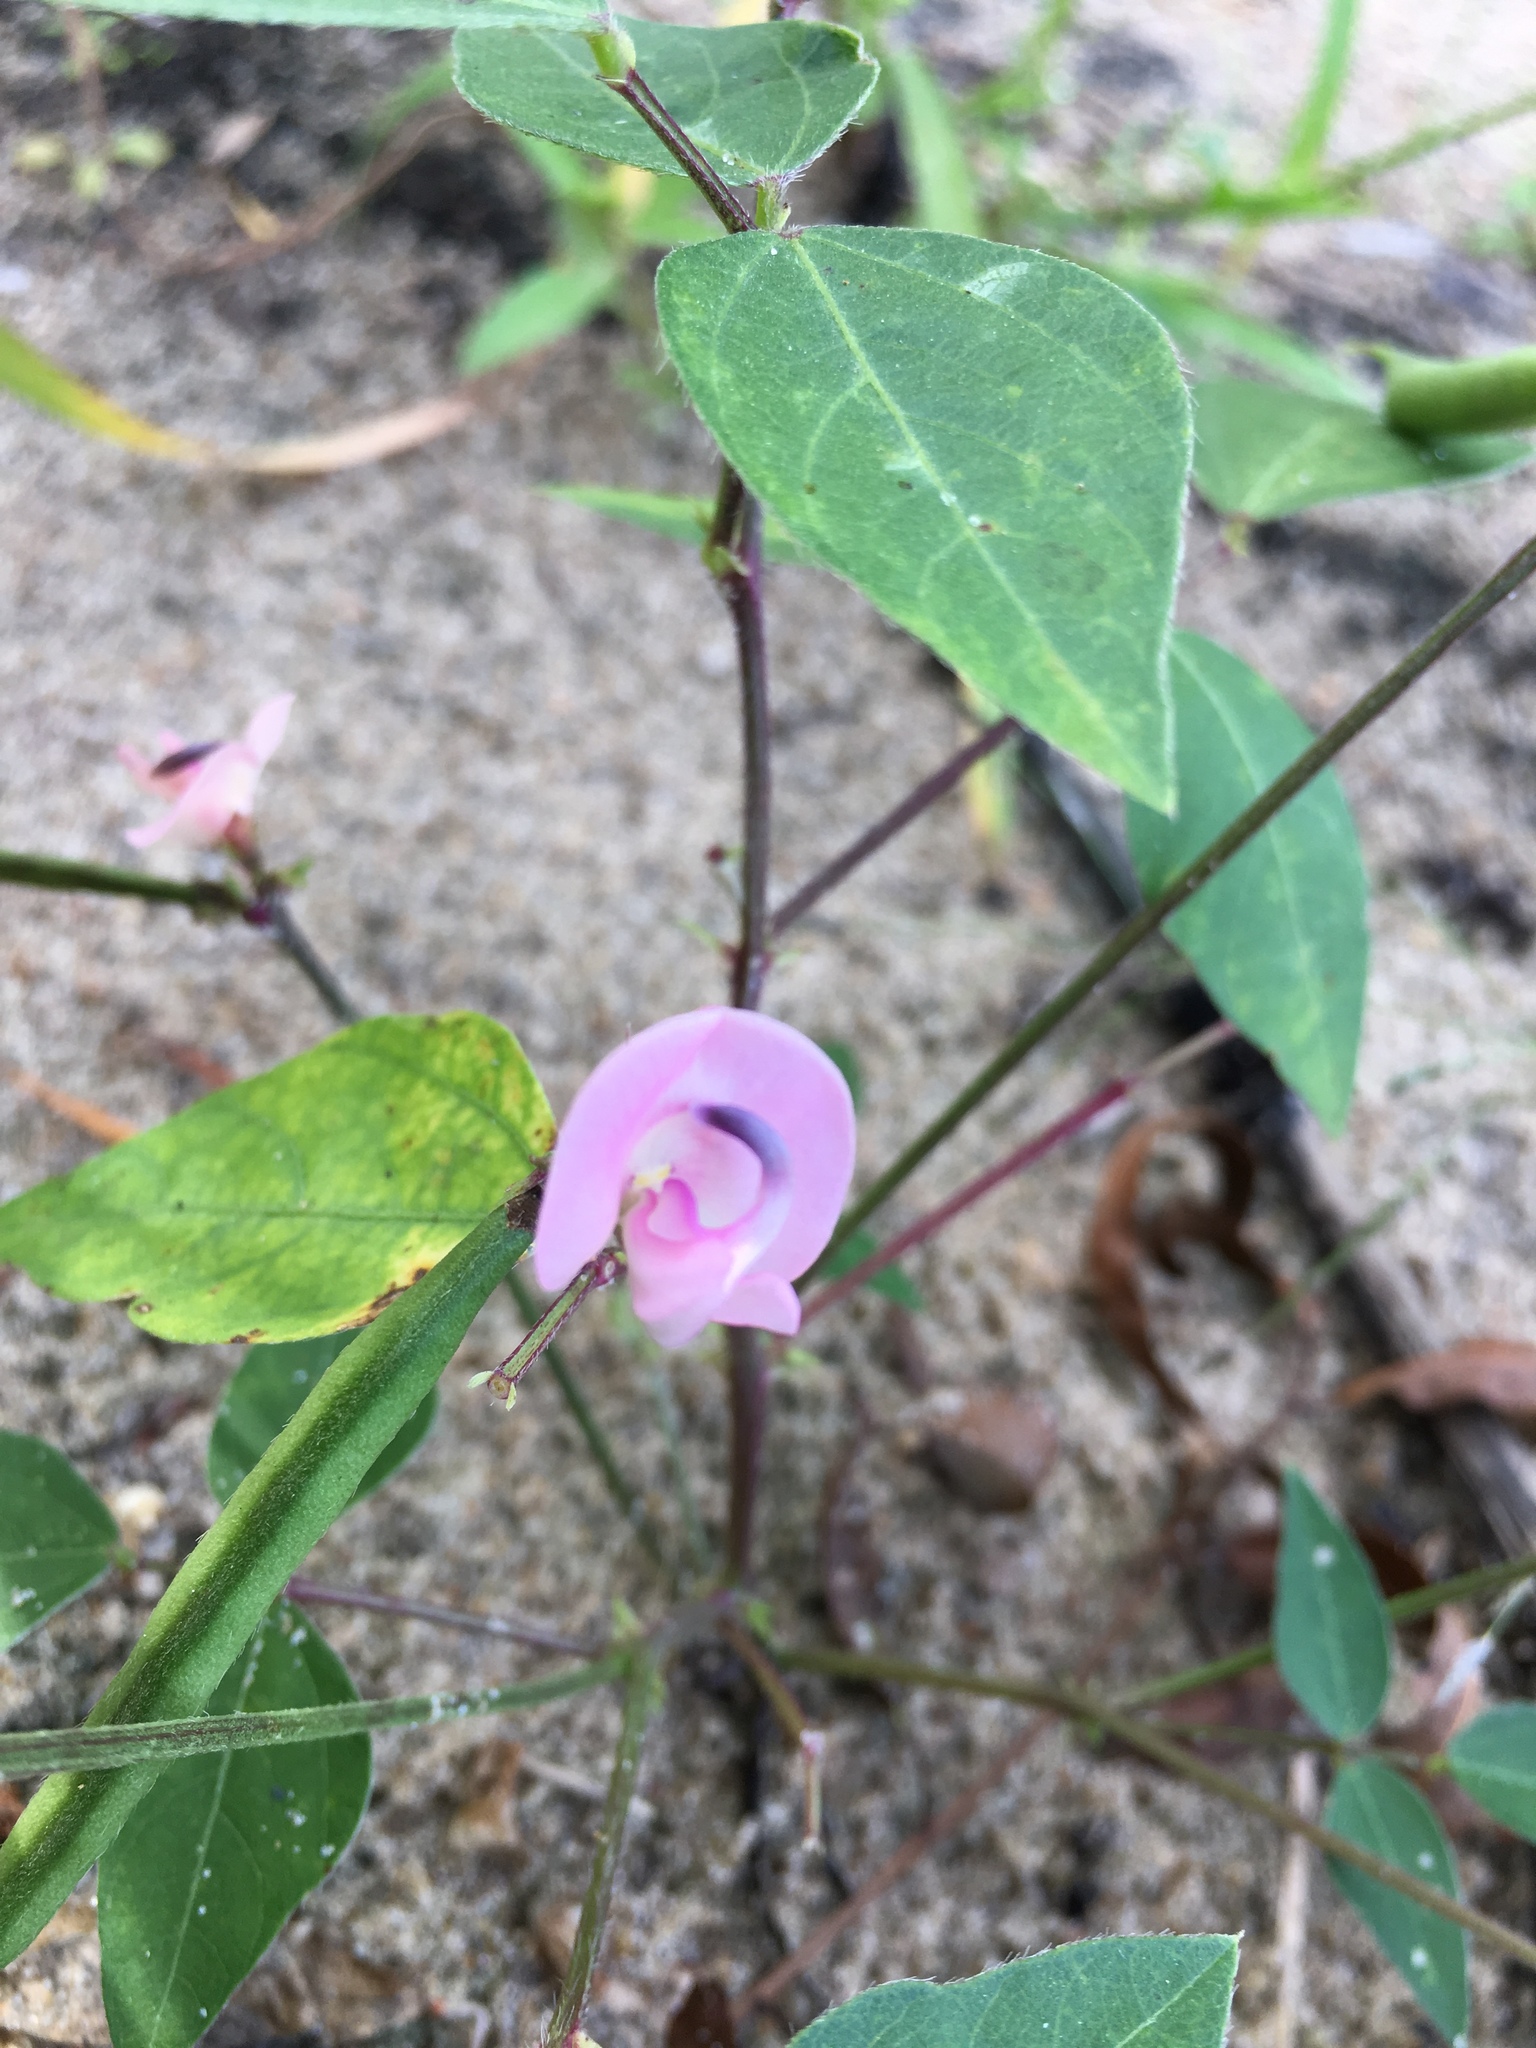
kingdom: Plantae
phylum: Tracheophyta
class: Magnoliopsida
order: Fabales
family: Fabaceae
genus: Strophostyles
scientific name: Strophostyles helvola
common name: Trailing wild bean
